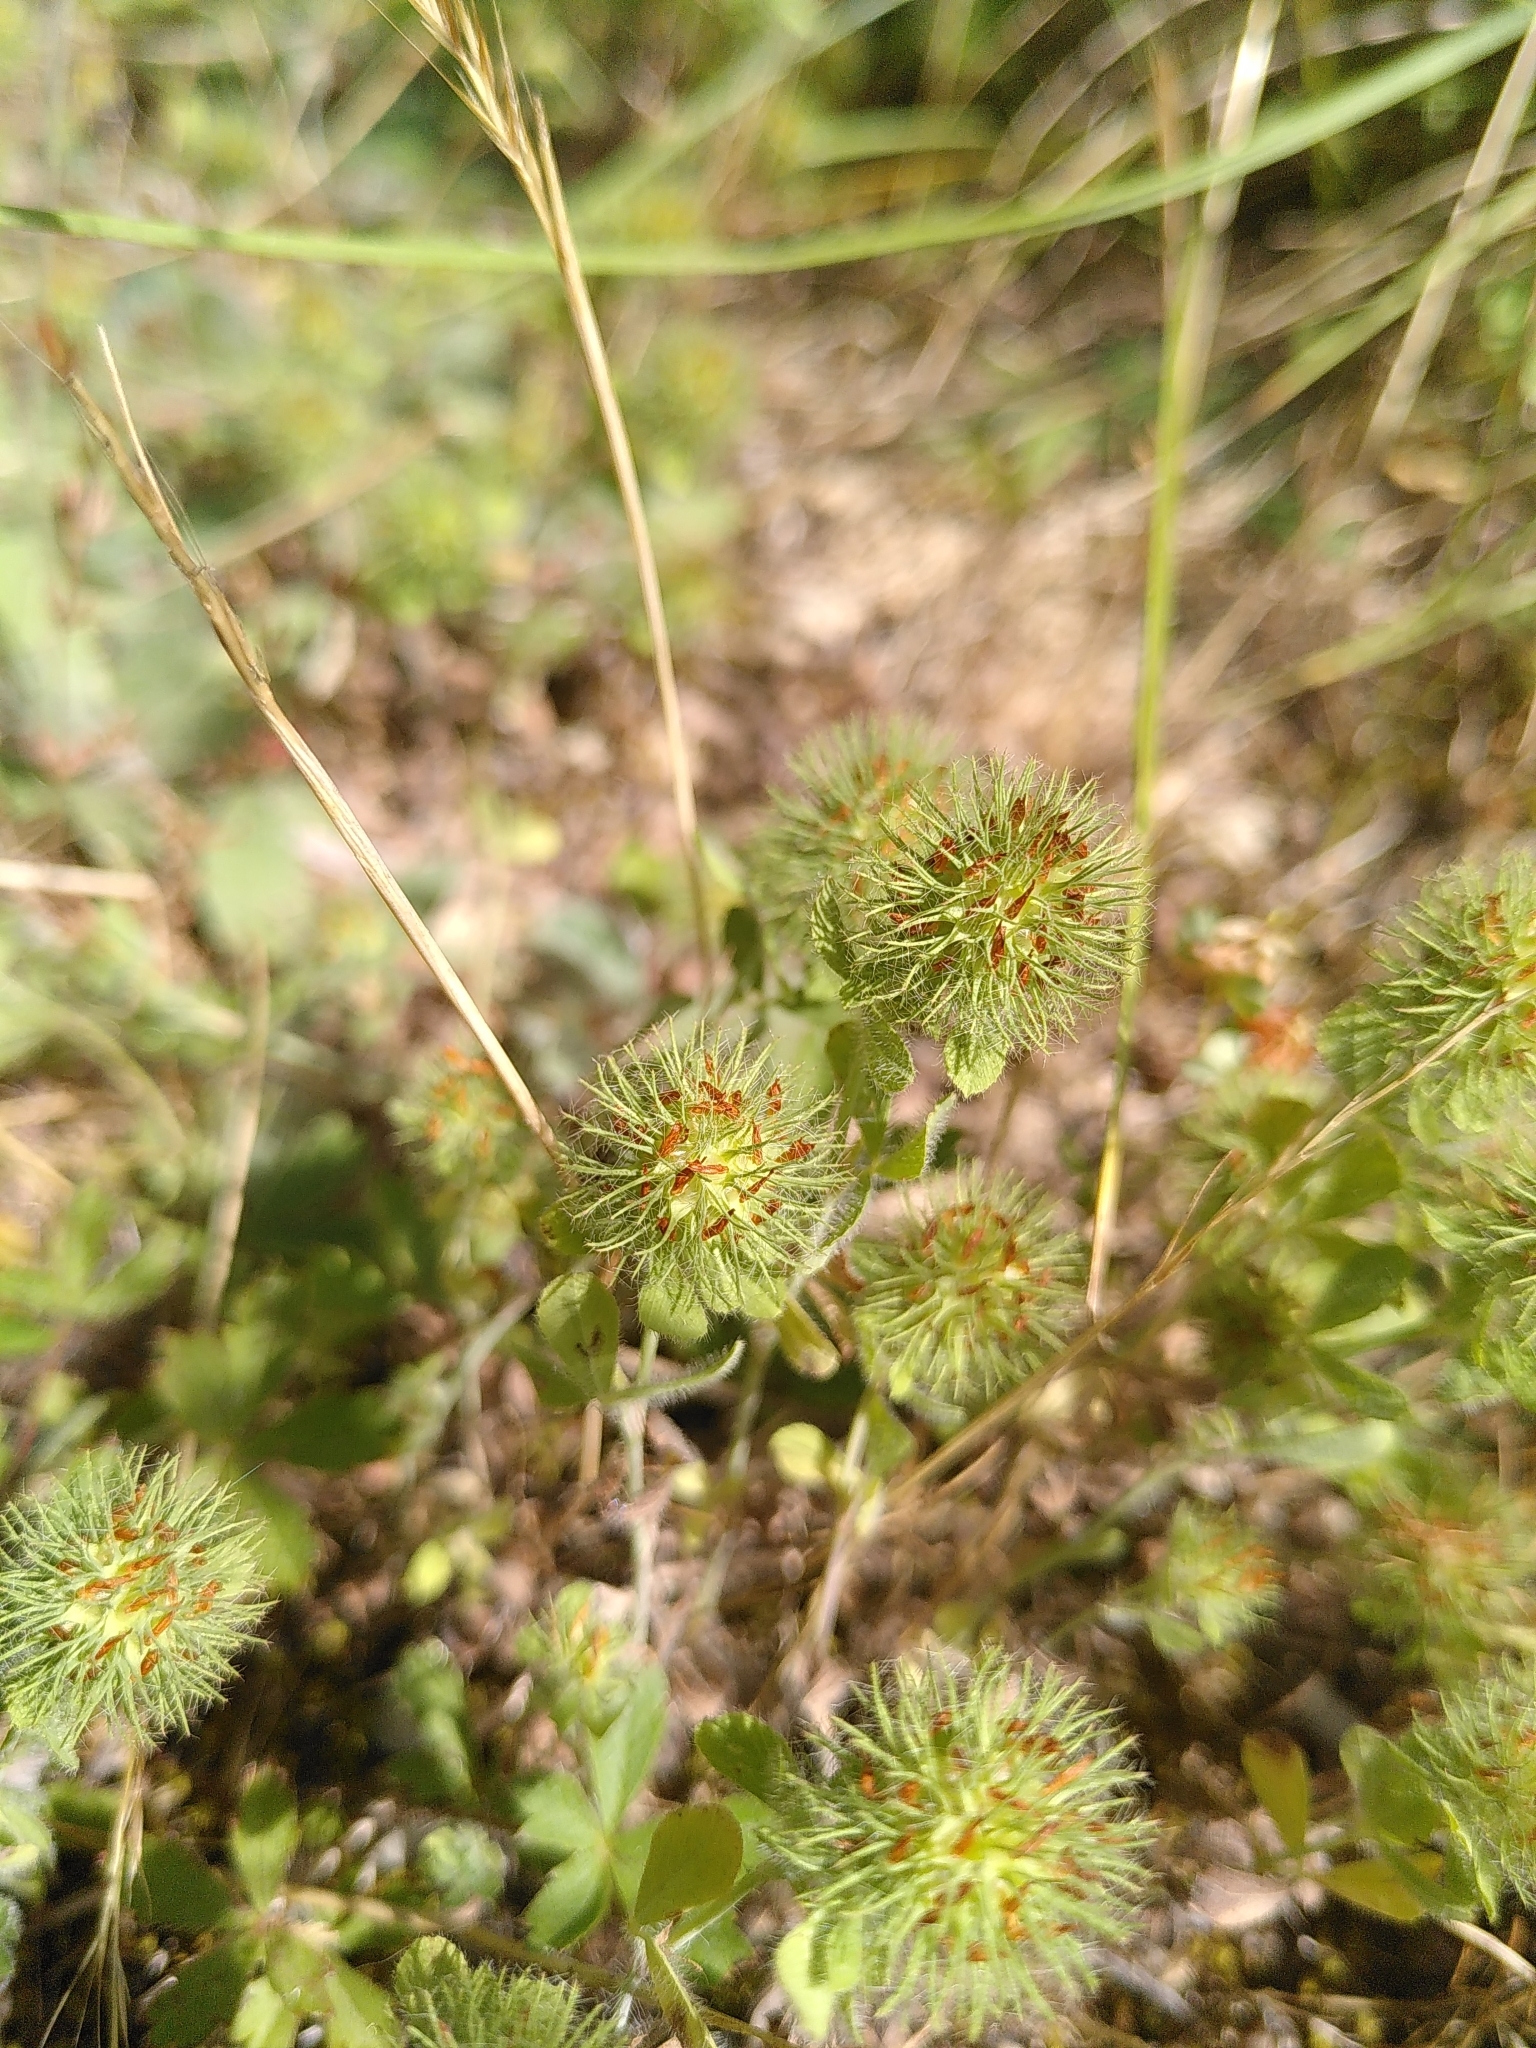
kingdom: Plantae
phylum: Tracheophyta
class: Magnoliopsida
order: Fabales
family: Fabaceae
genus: Trifolium
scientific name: Trifolium lappaceum
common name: Bur clover
